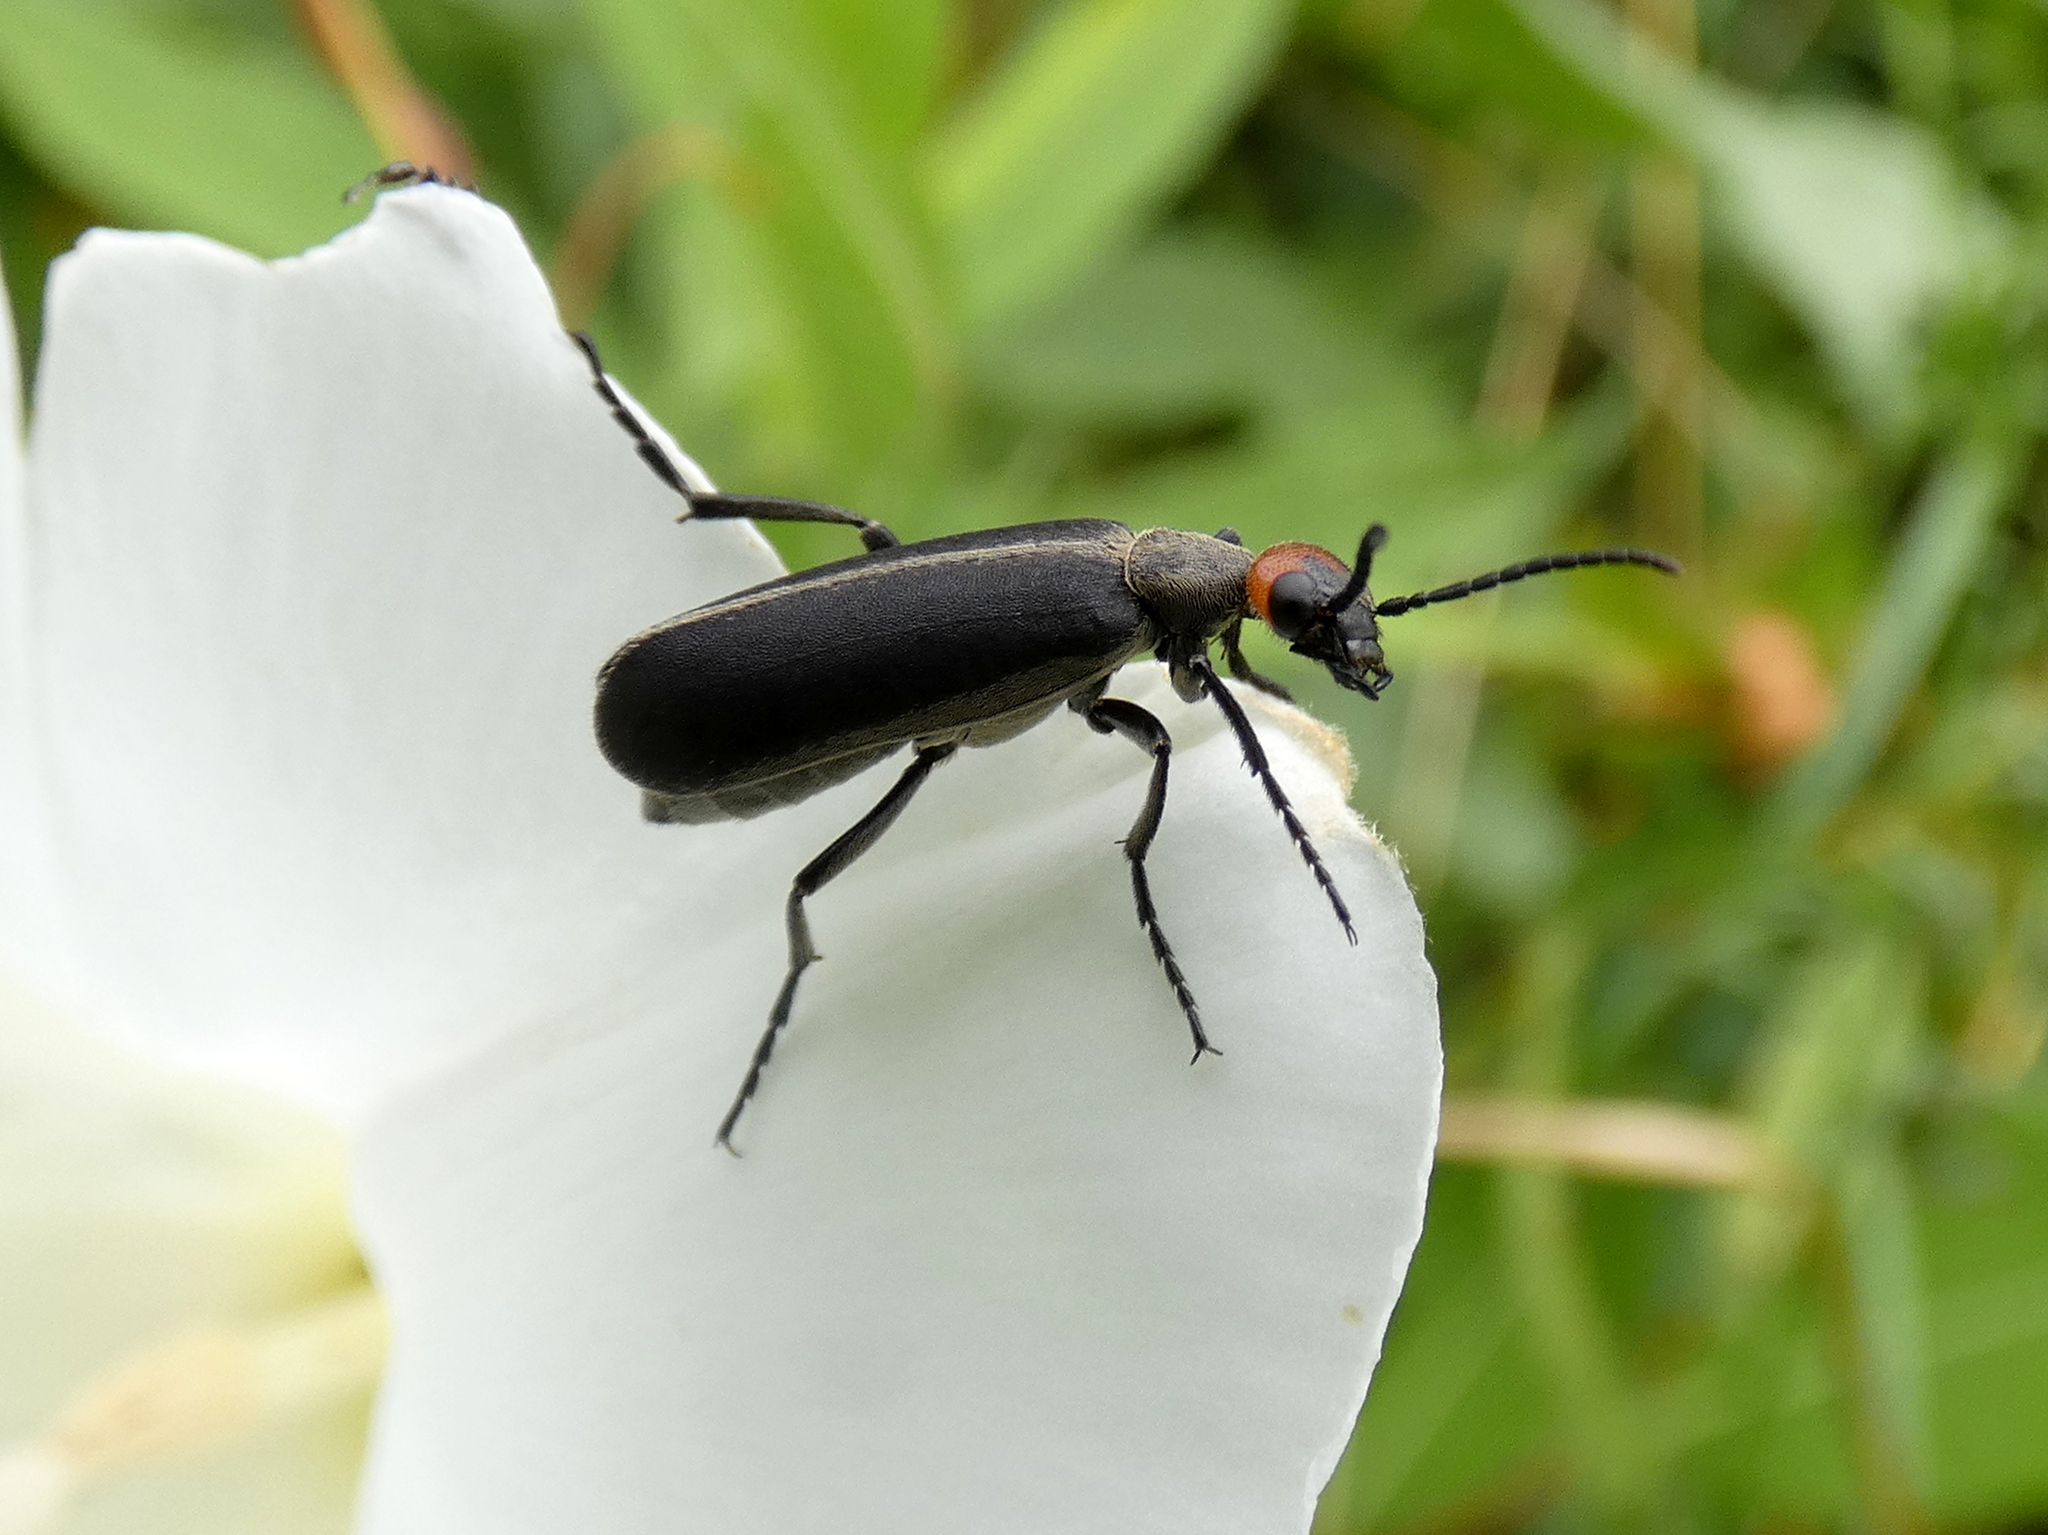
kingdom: Animalia
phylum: Arthropoda
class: Insecta
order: Coleoptera
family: Meloidae
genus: Epicauta
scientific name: Epicauta atrata
